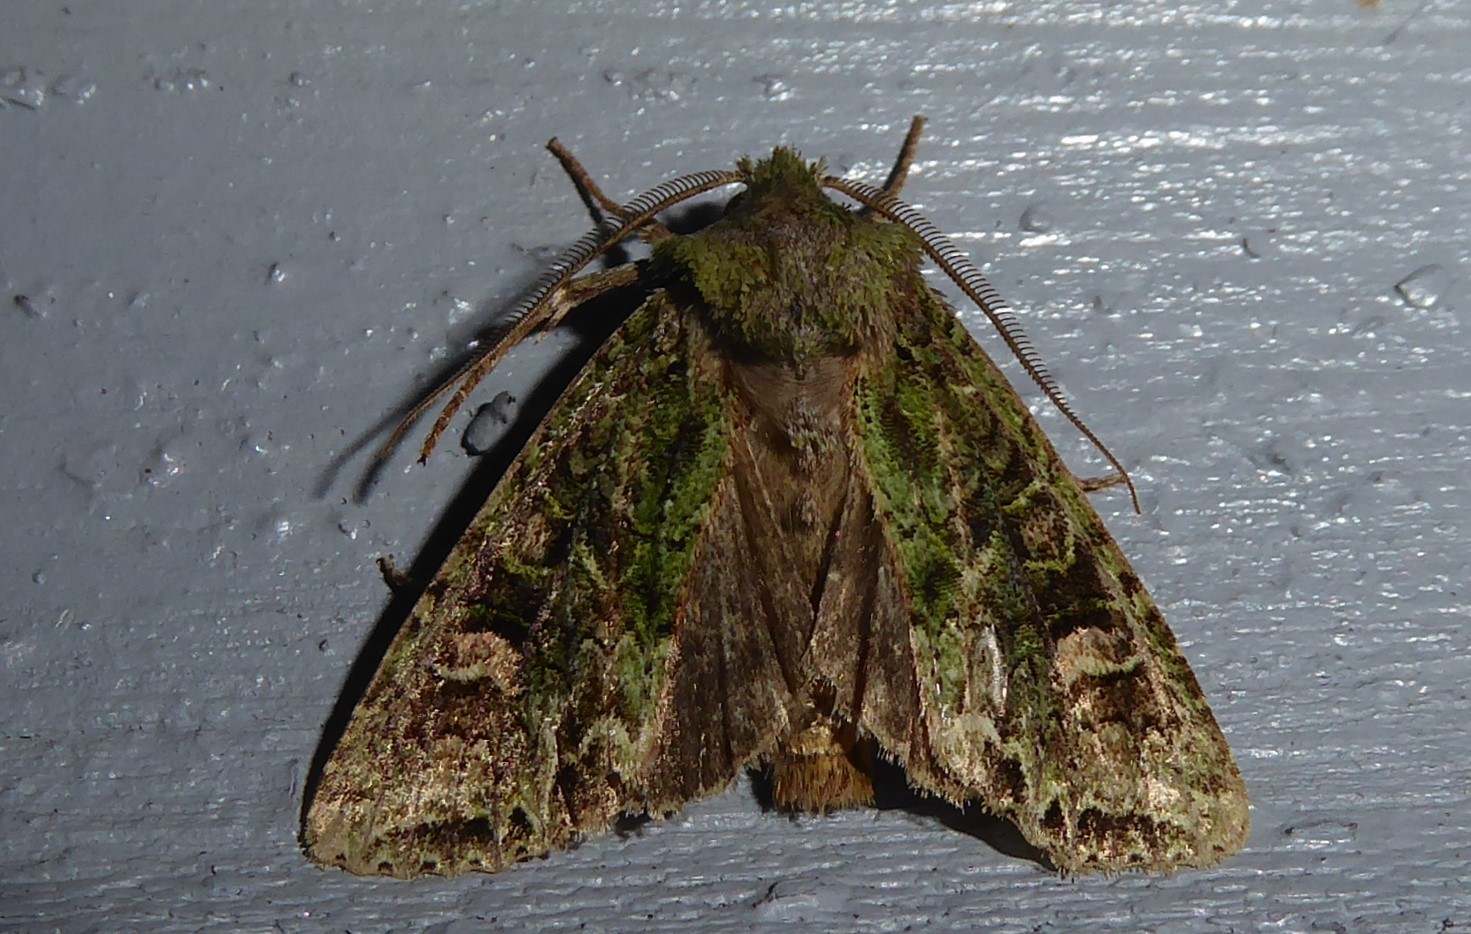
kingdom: Animalia
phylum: Arthropoda
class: Insecta
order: Lepidoptera
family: Noctuidae
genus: Ichneutica
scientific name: Ichneutica
